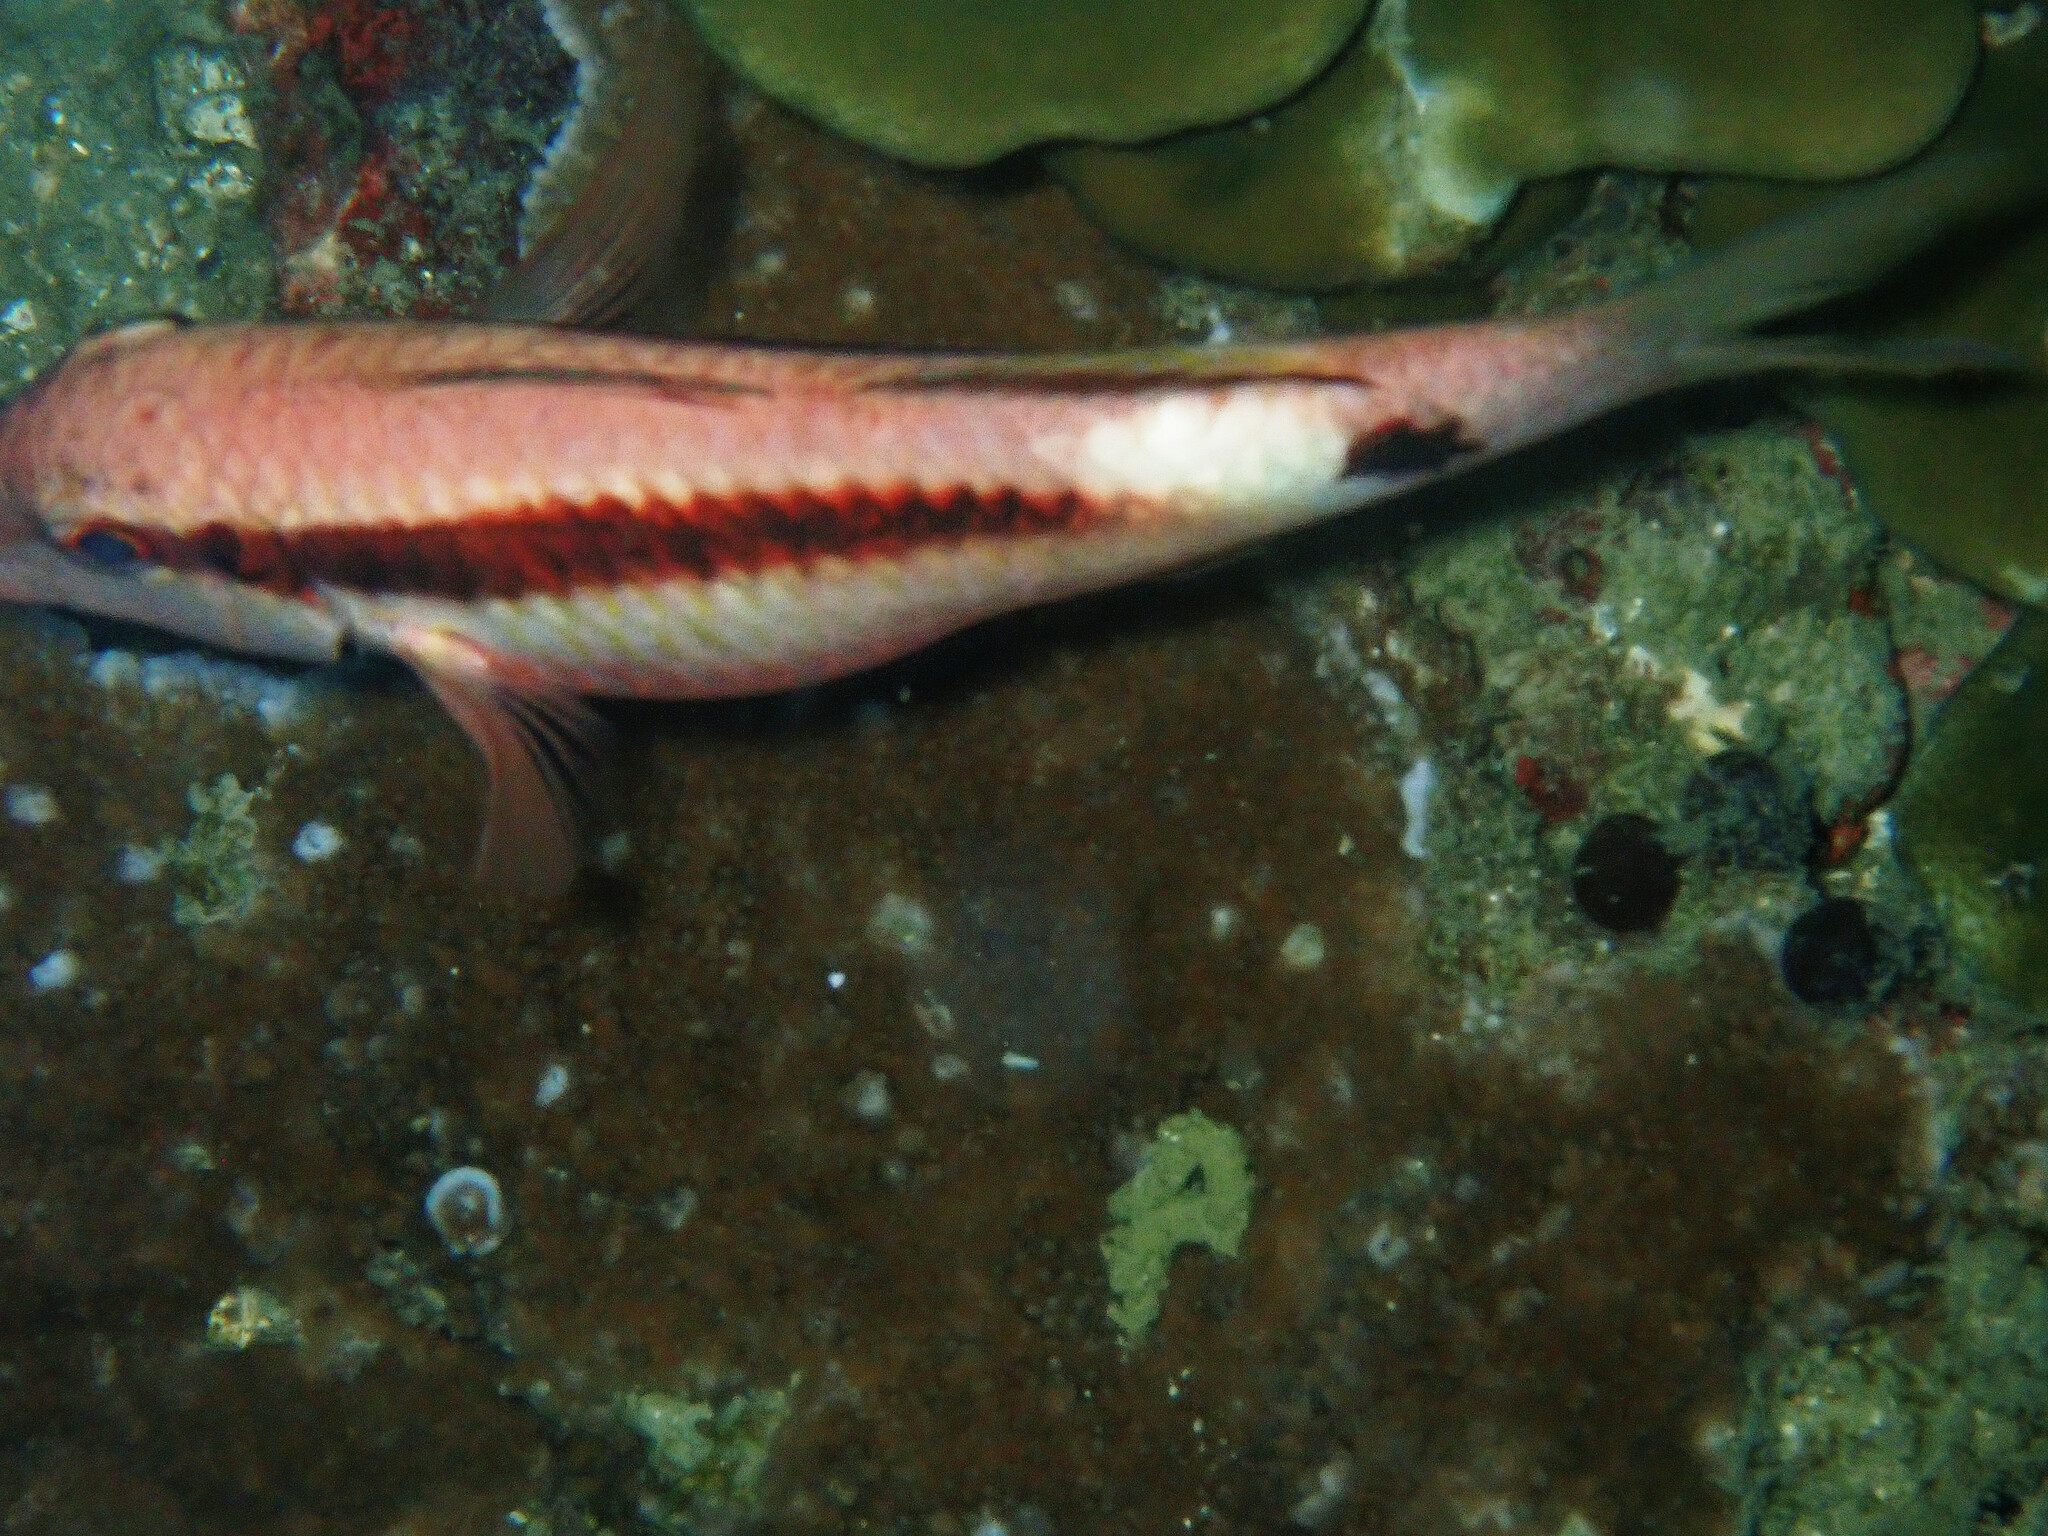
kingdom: Animalia
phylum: Chordata
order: Perciformes
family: Mullidae
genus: Parupeneus
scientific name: Parupeneus macronemus
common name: Long-barbel goatfish
